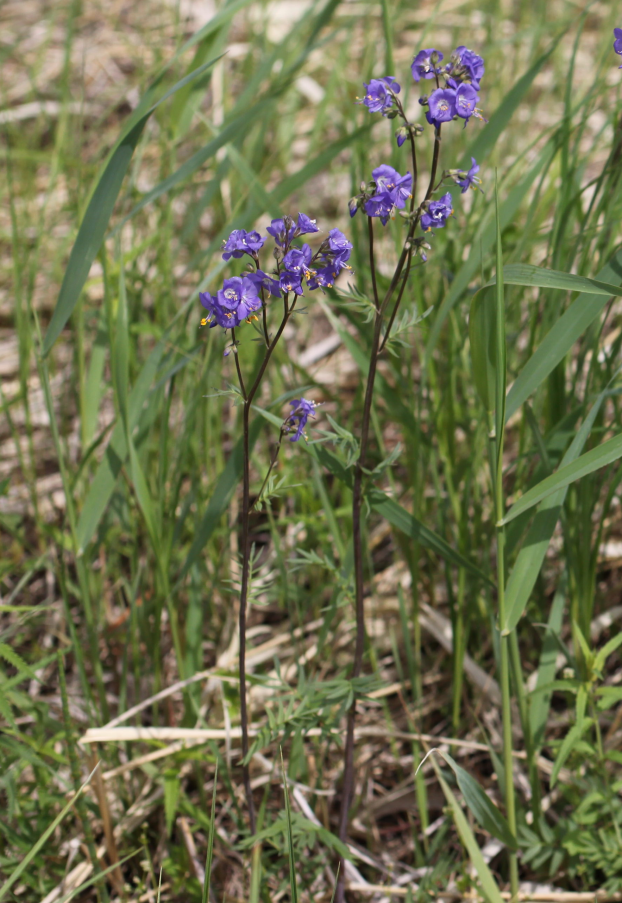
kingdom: Plantae
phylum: Tracheophyta
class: Magnoliopsida
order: Ericales
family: Polemoniaceae
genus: Polemonium
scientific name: Polemonium caeruleum
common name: Jacob's-ladder
